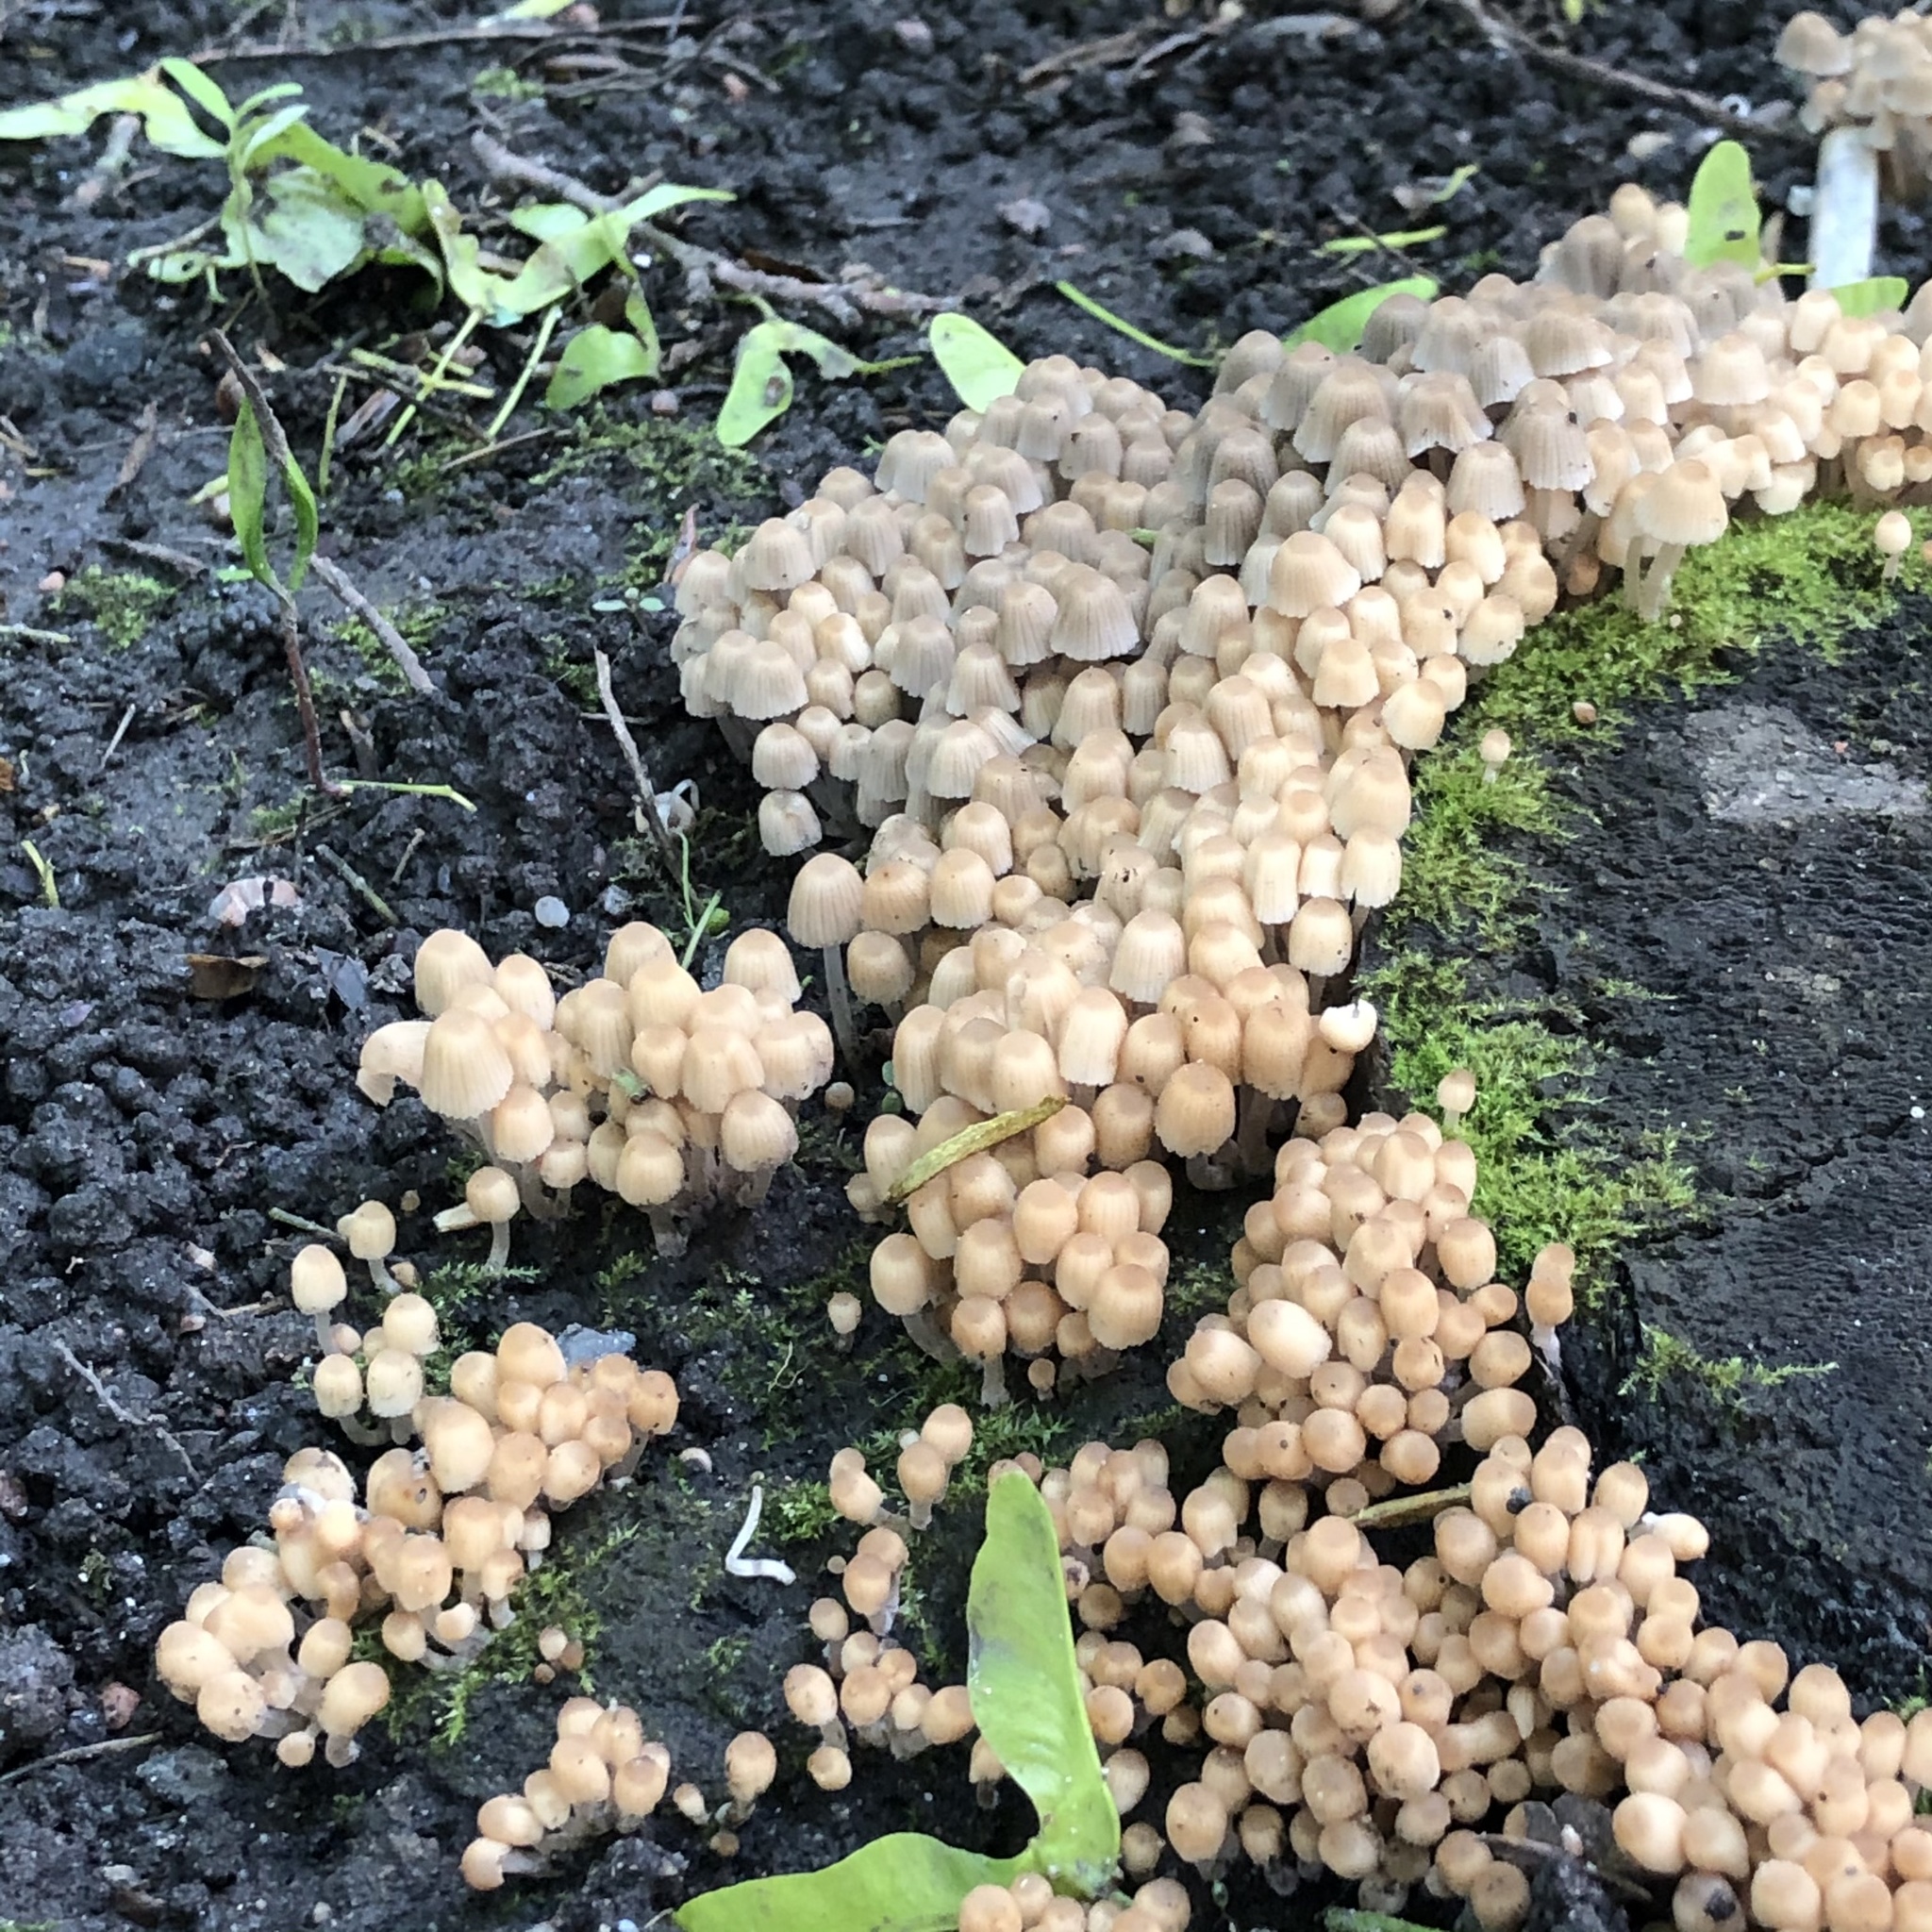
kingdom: Fungi
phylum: Basidiomycota
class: Agaricomycetes
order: Agaricales
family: Psathyrellaceae
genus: Coprinellus
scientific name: Coprinellus disseminatus
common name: Fairies' bonnets
